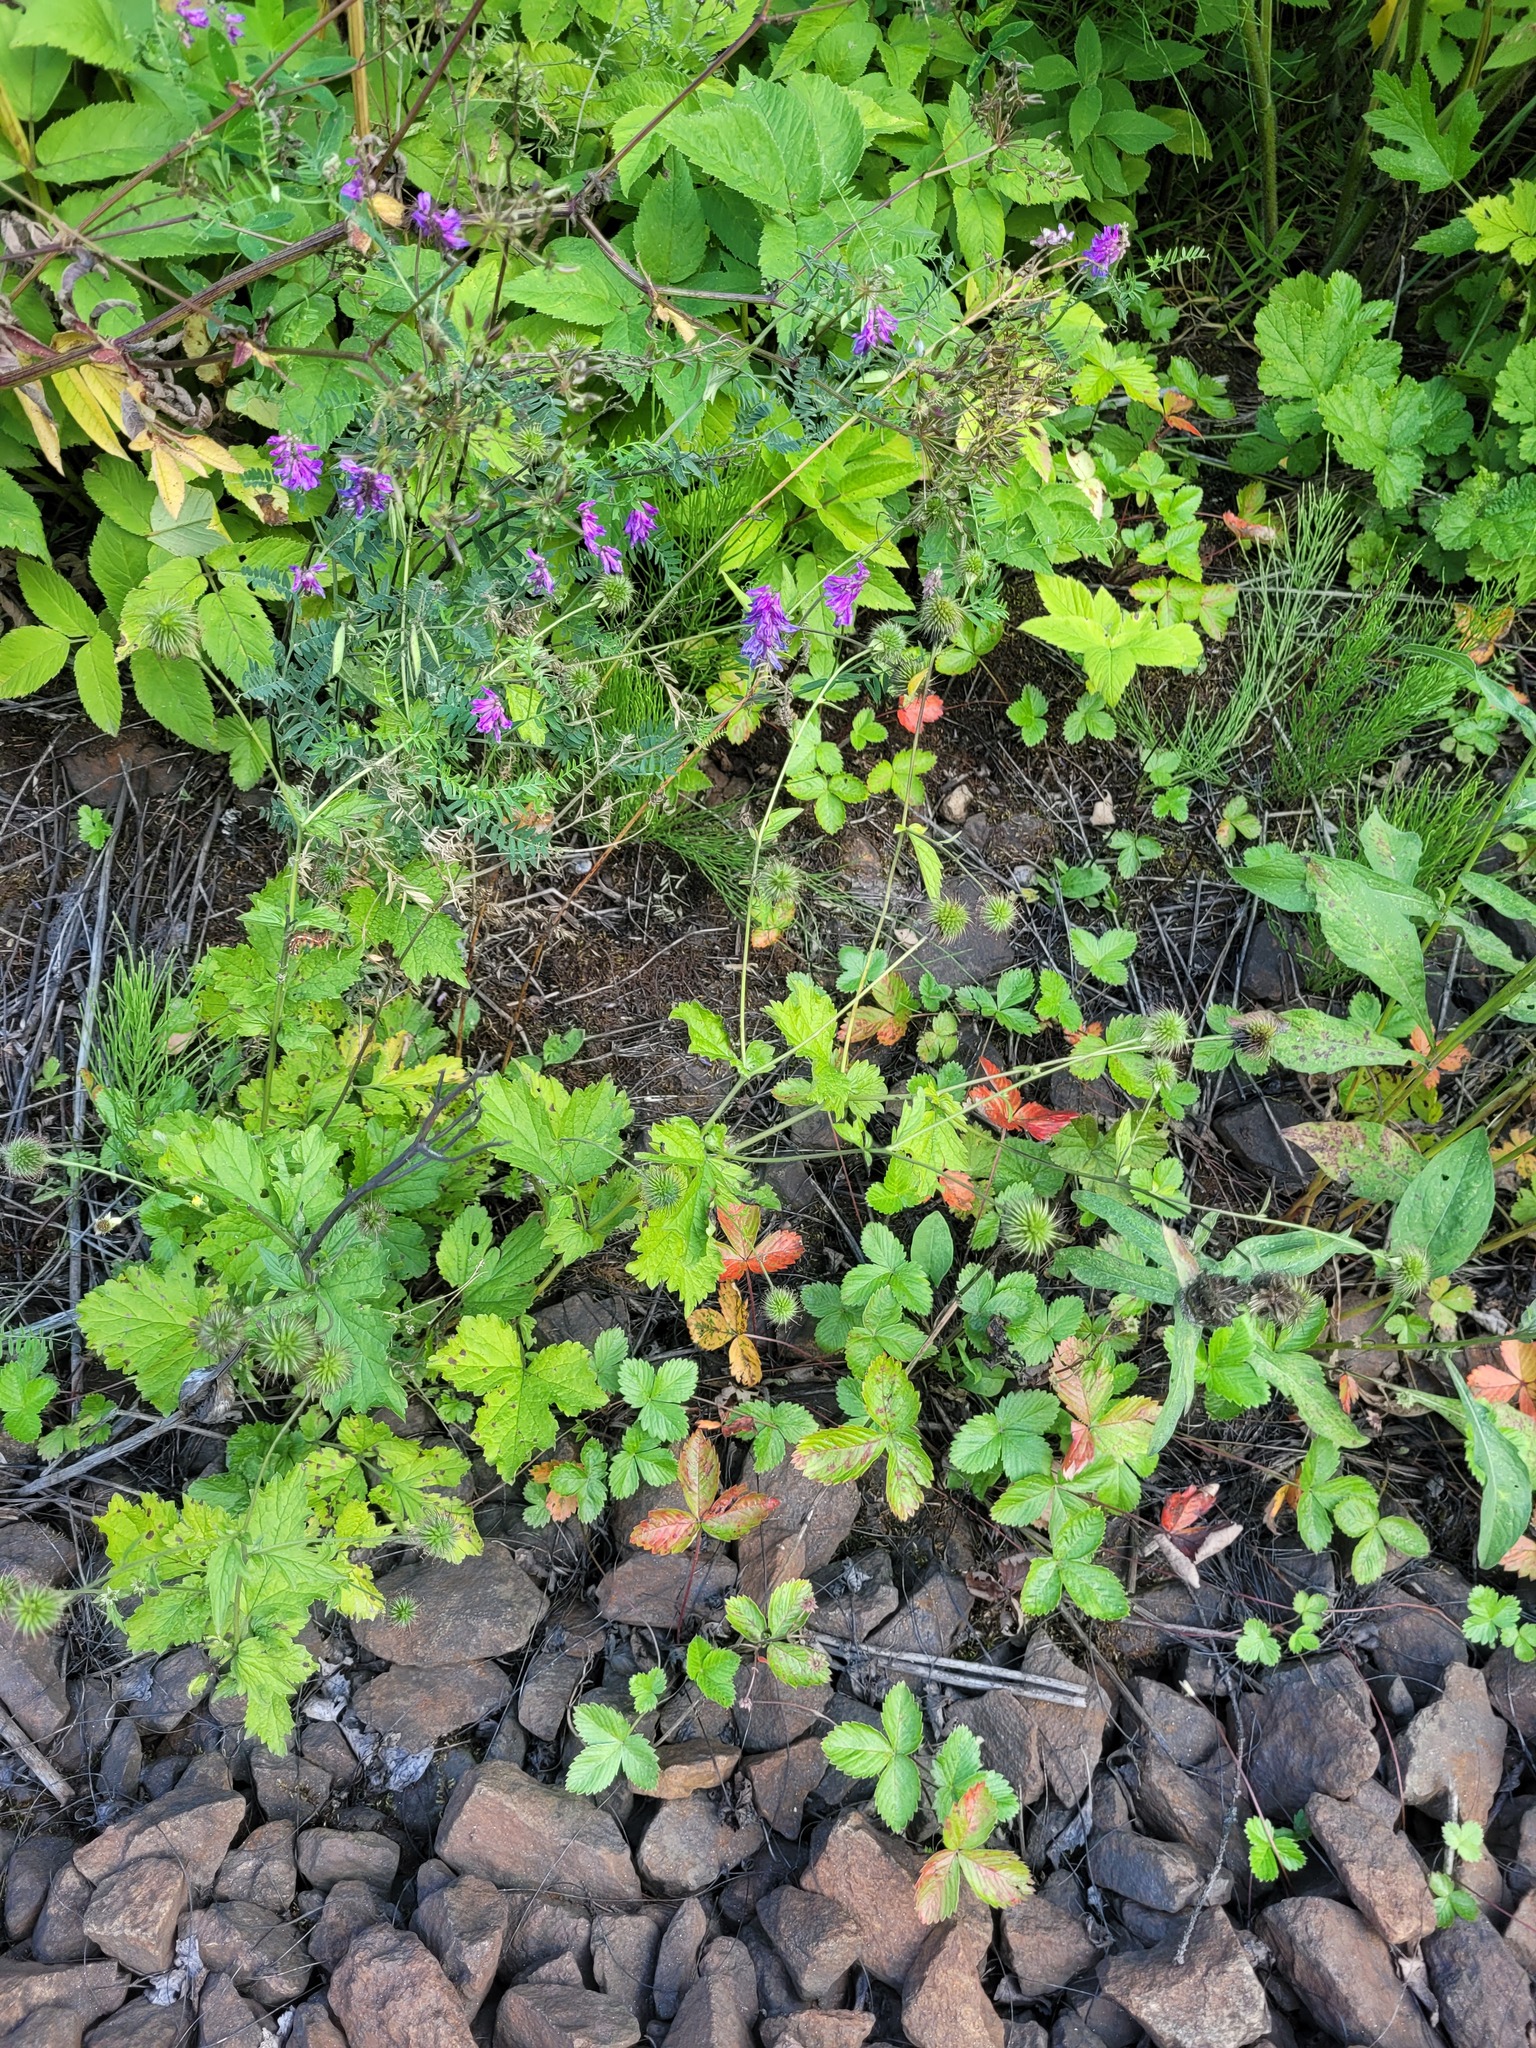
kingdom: Plantae
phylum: Tracheophyta
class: Magnoliopsida
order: Rosales
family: Rosaceae
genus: Geum
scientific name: Geum urbanum
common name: Wood avens
